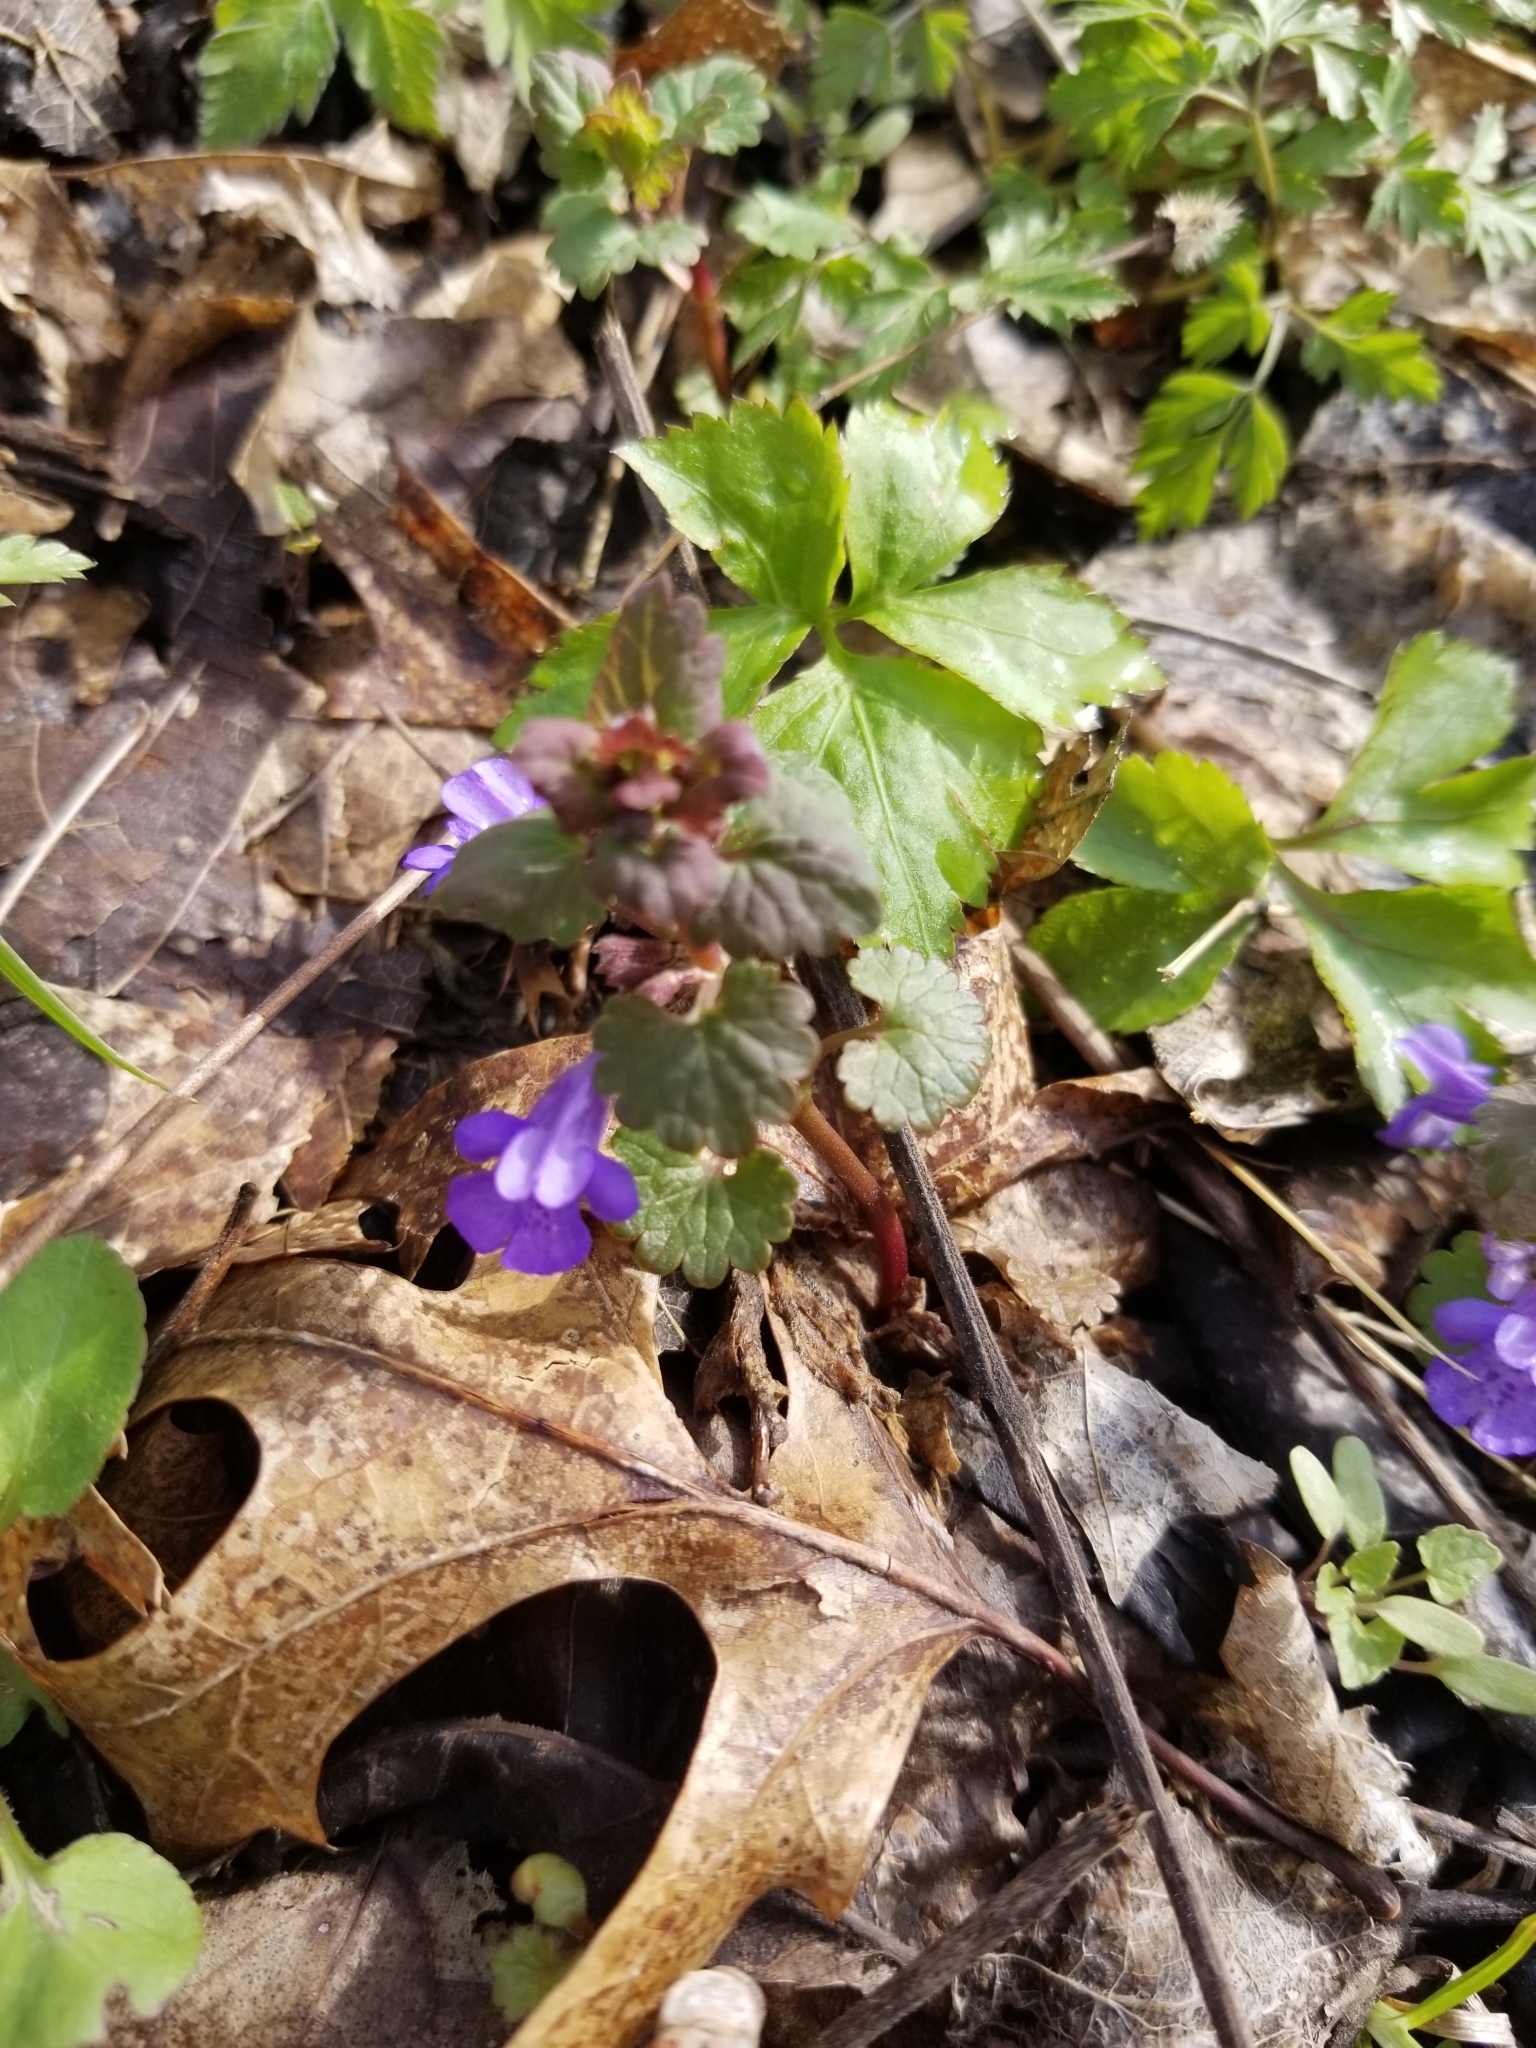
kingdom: Plantae
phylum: Tracheophyta
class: Magnoliopsida
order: Lamiales
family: Lamiaceae
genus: Glechoma
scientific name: Glechoma hederacea
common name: Ground ivy
